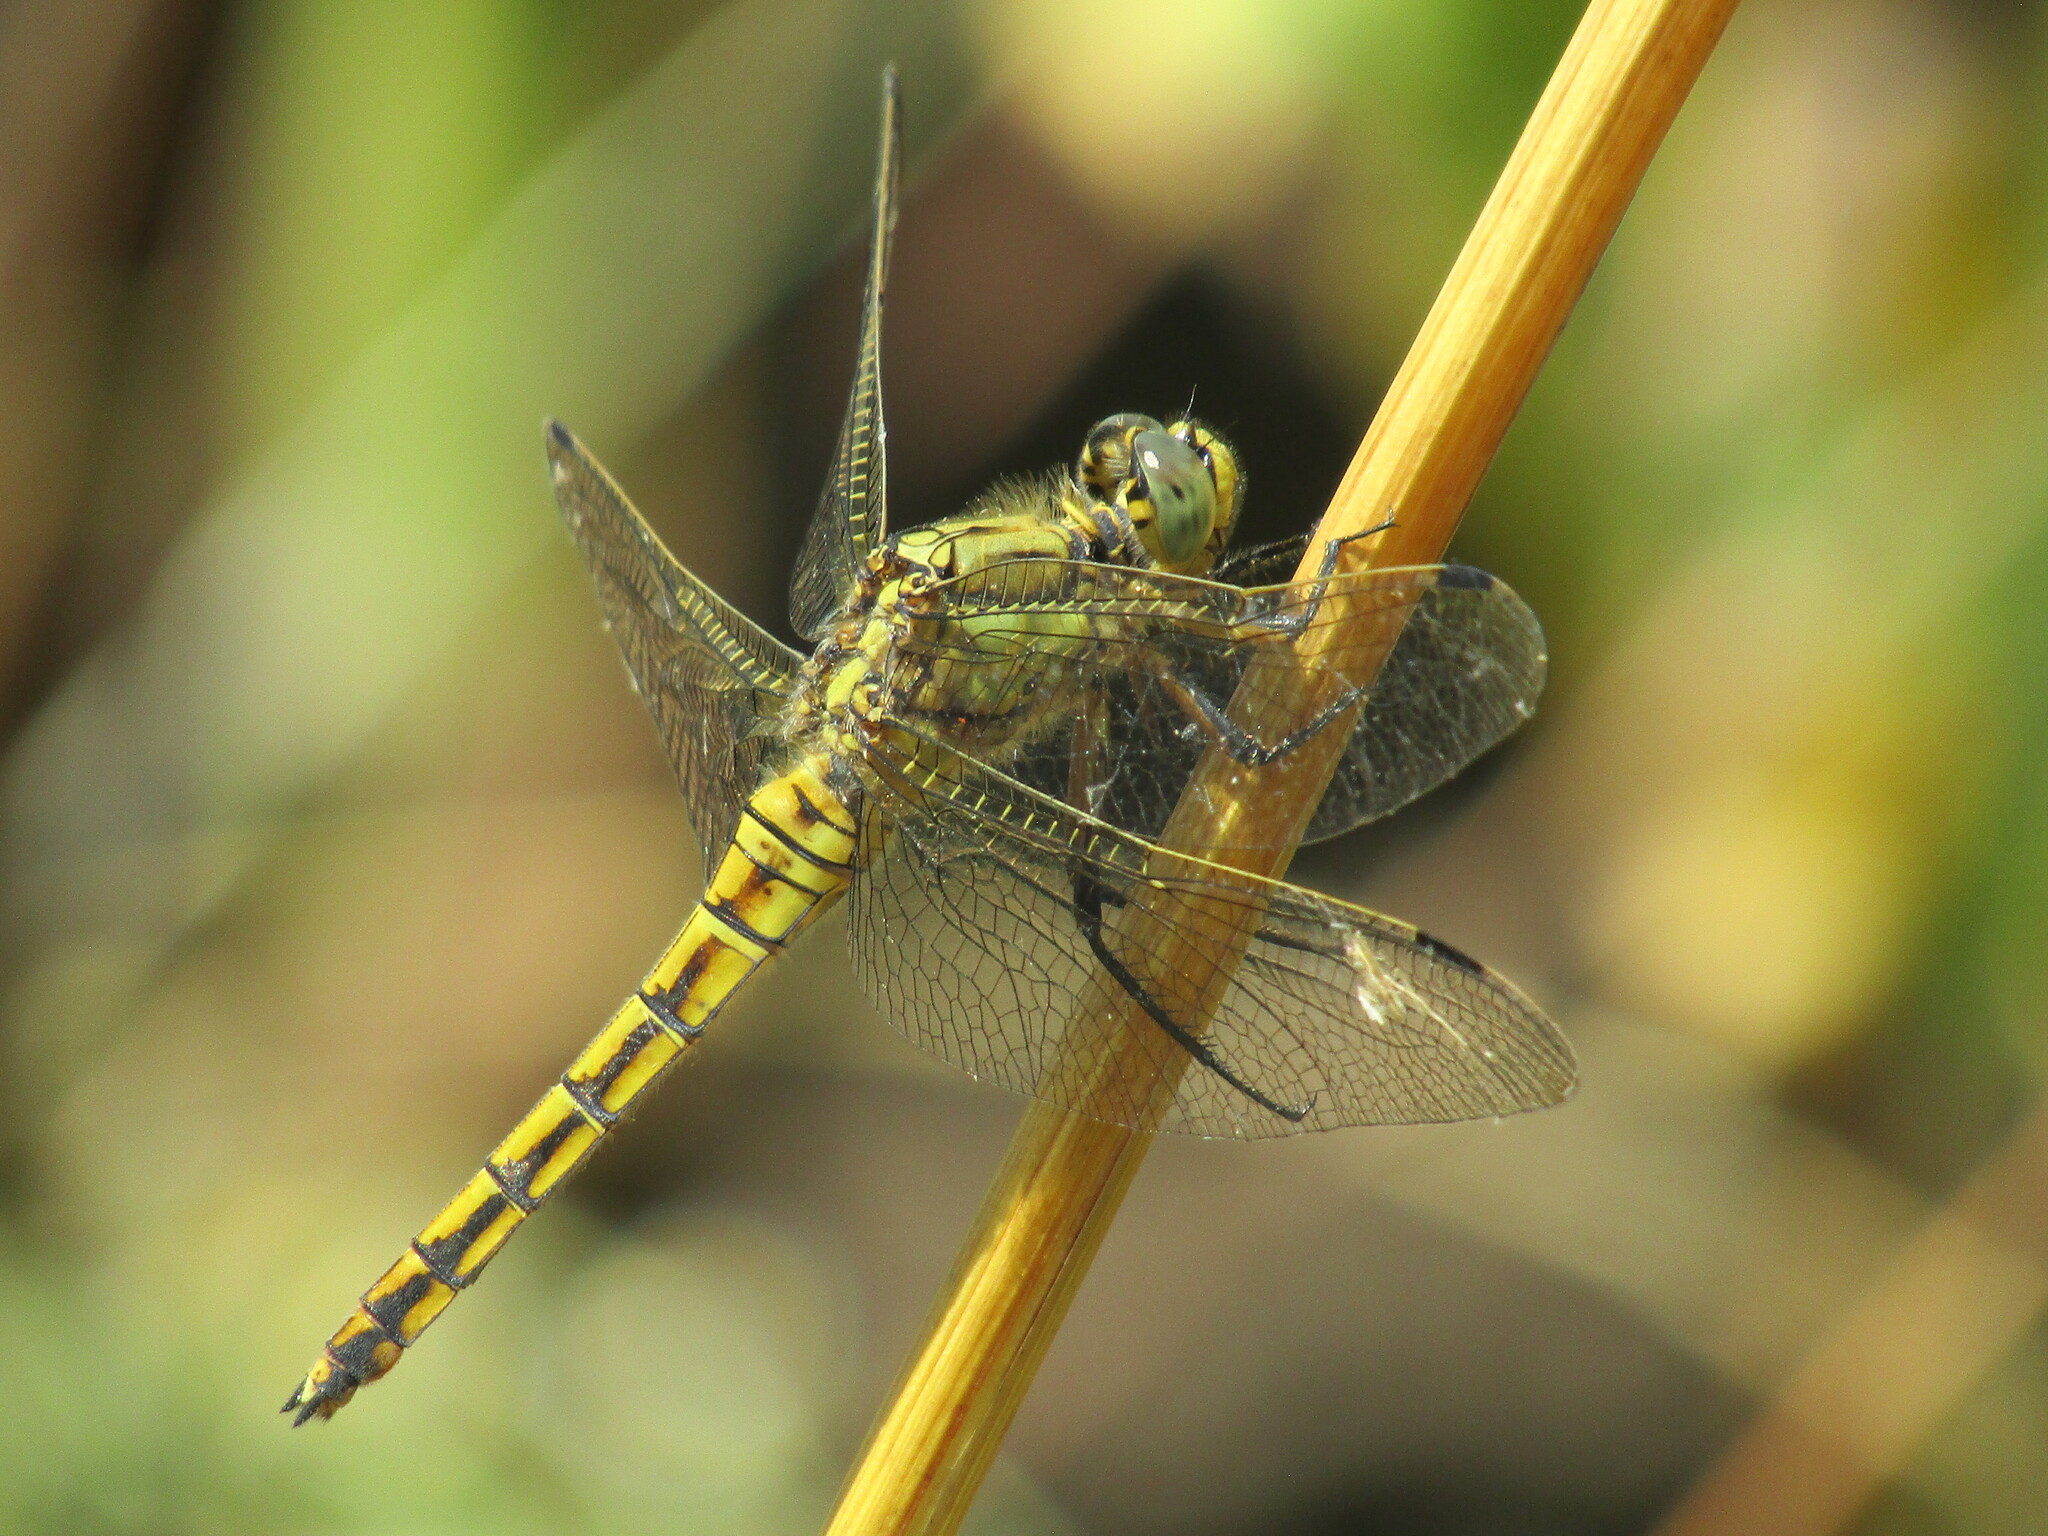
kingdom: Animalia
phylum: Arthropoda
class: Insecta
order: Odonata
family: Libellulidae
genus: Orthetrum
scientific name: Orthetrum cancellatum
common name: Black-tailed skimmer
